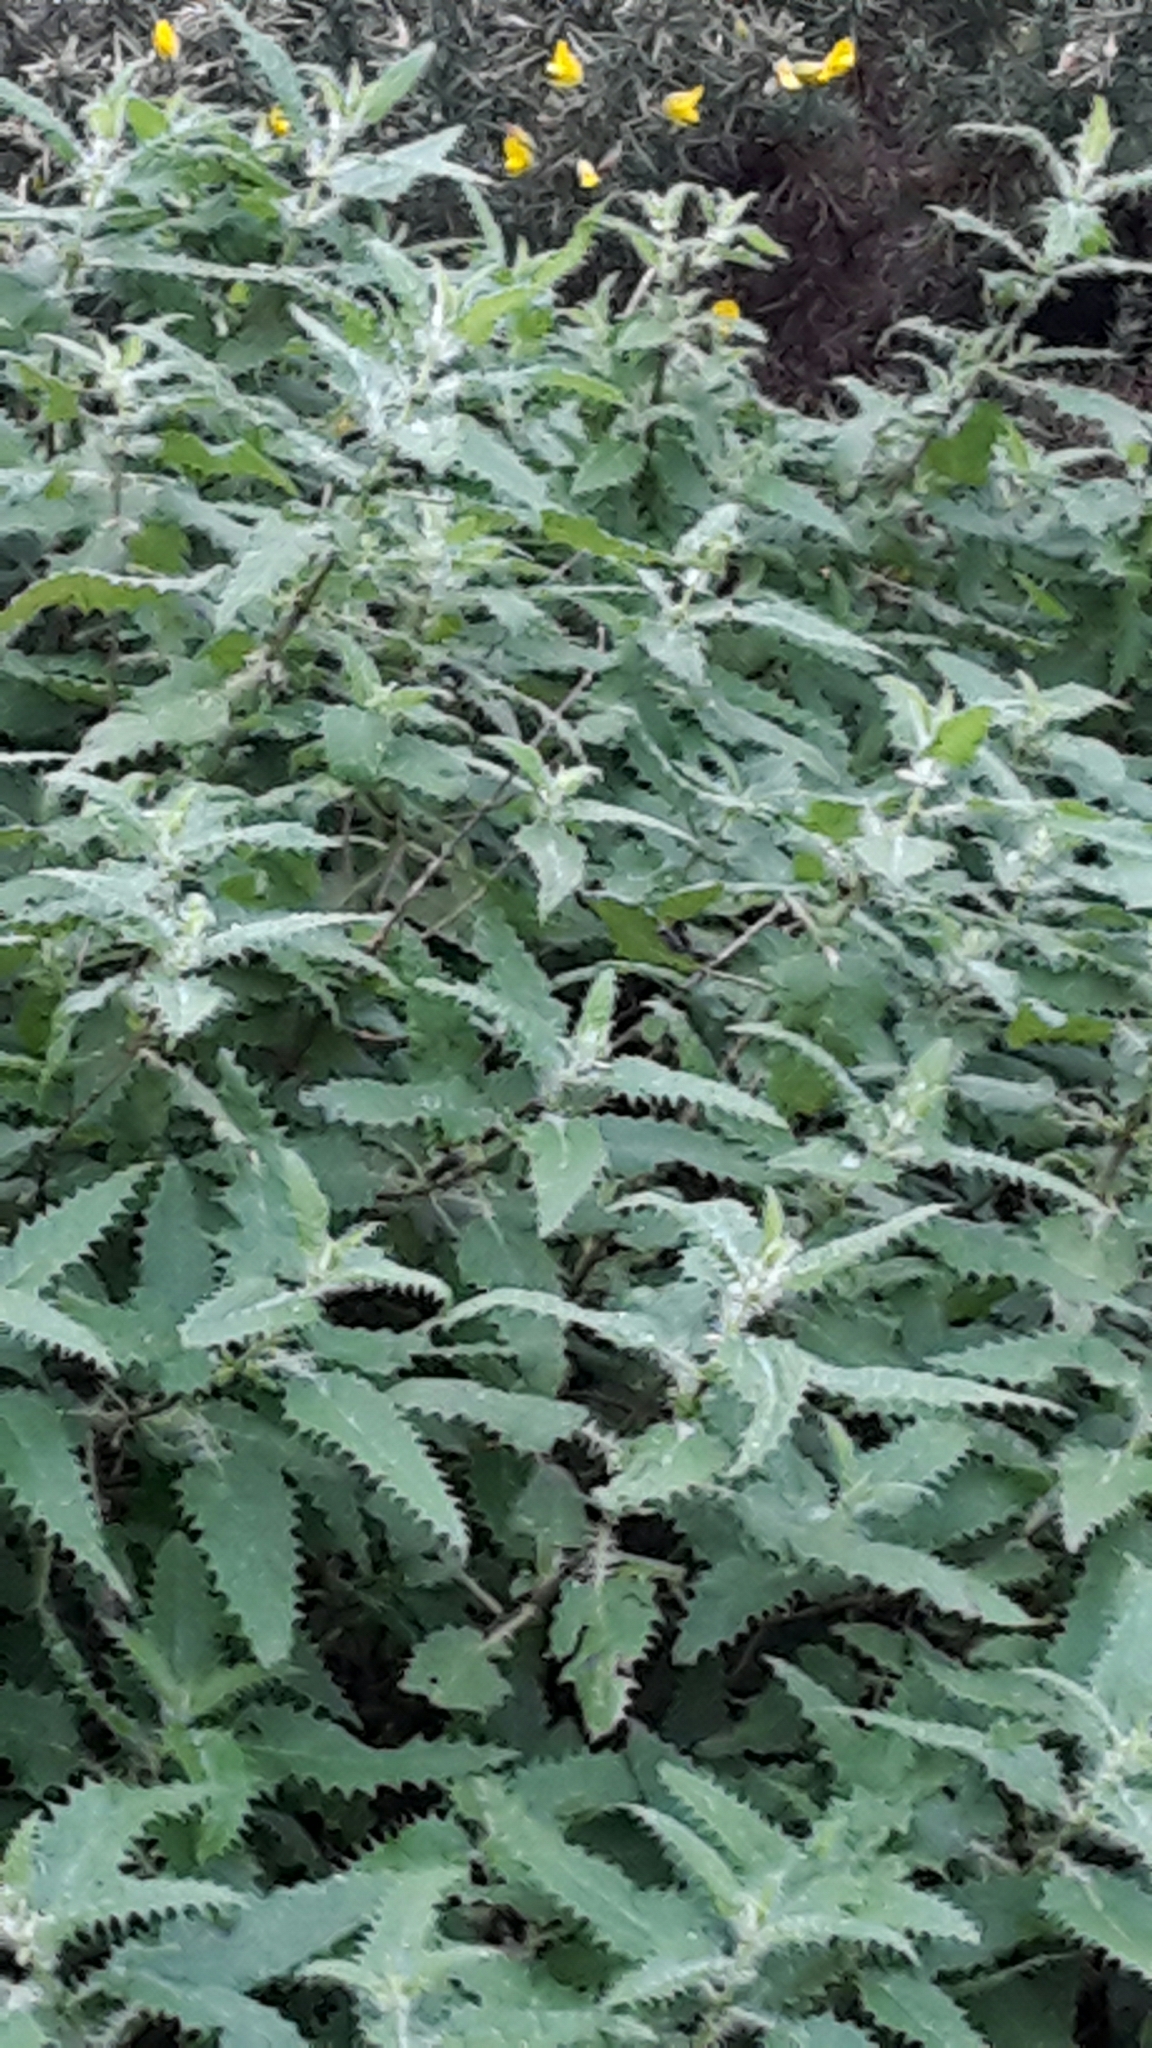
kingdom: Plantae
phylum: Tracheophyta
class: Magnoliopsida
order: Rosales
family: Urticaceae
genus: Urtica
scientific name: Urtica ferox
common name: Tree nettle
